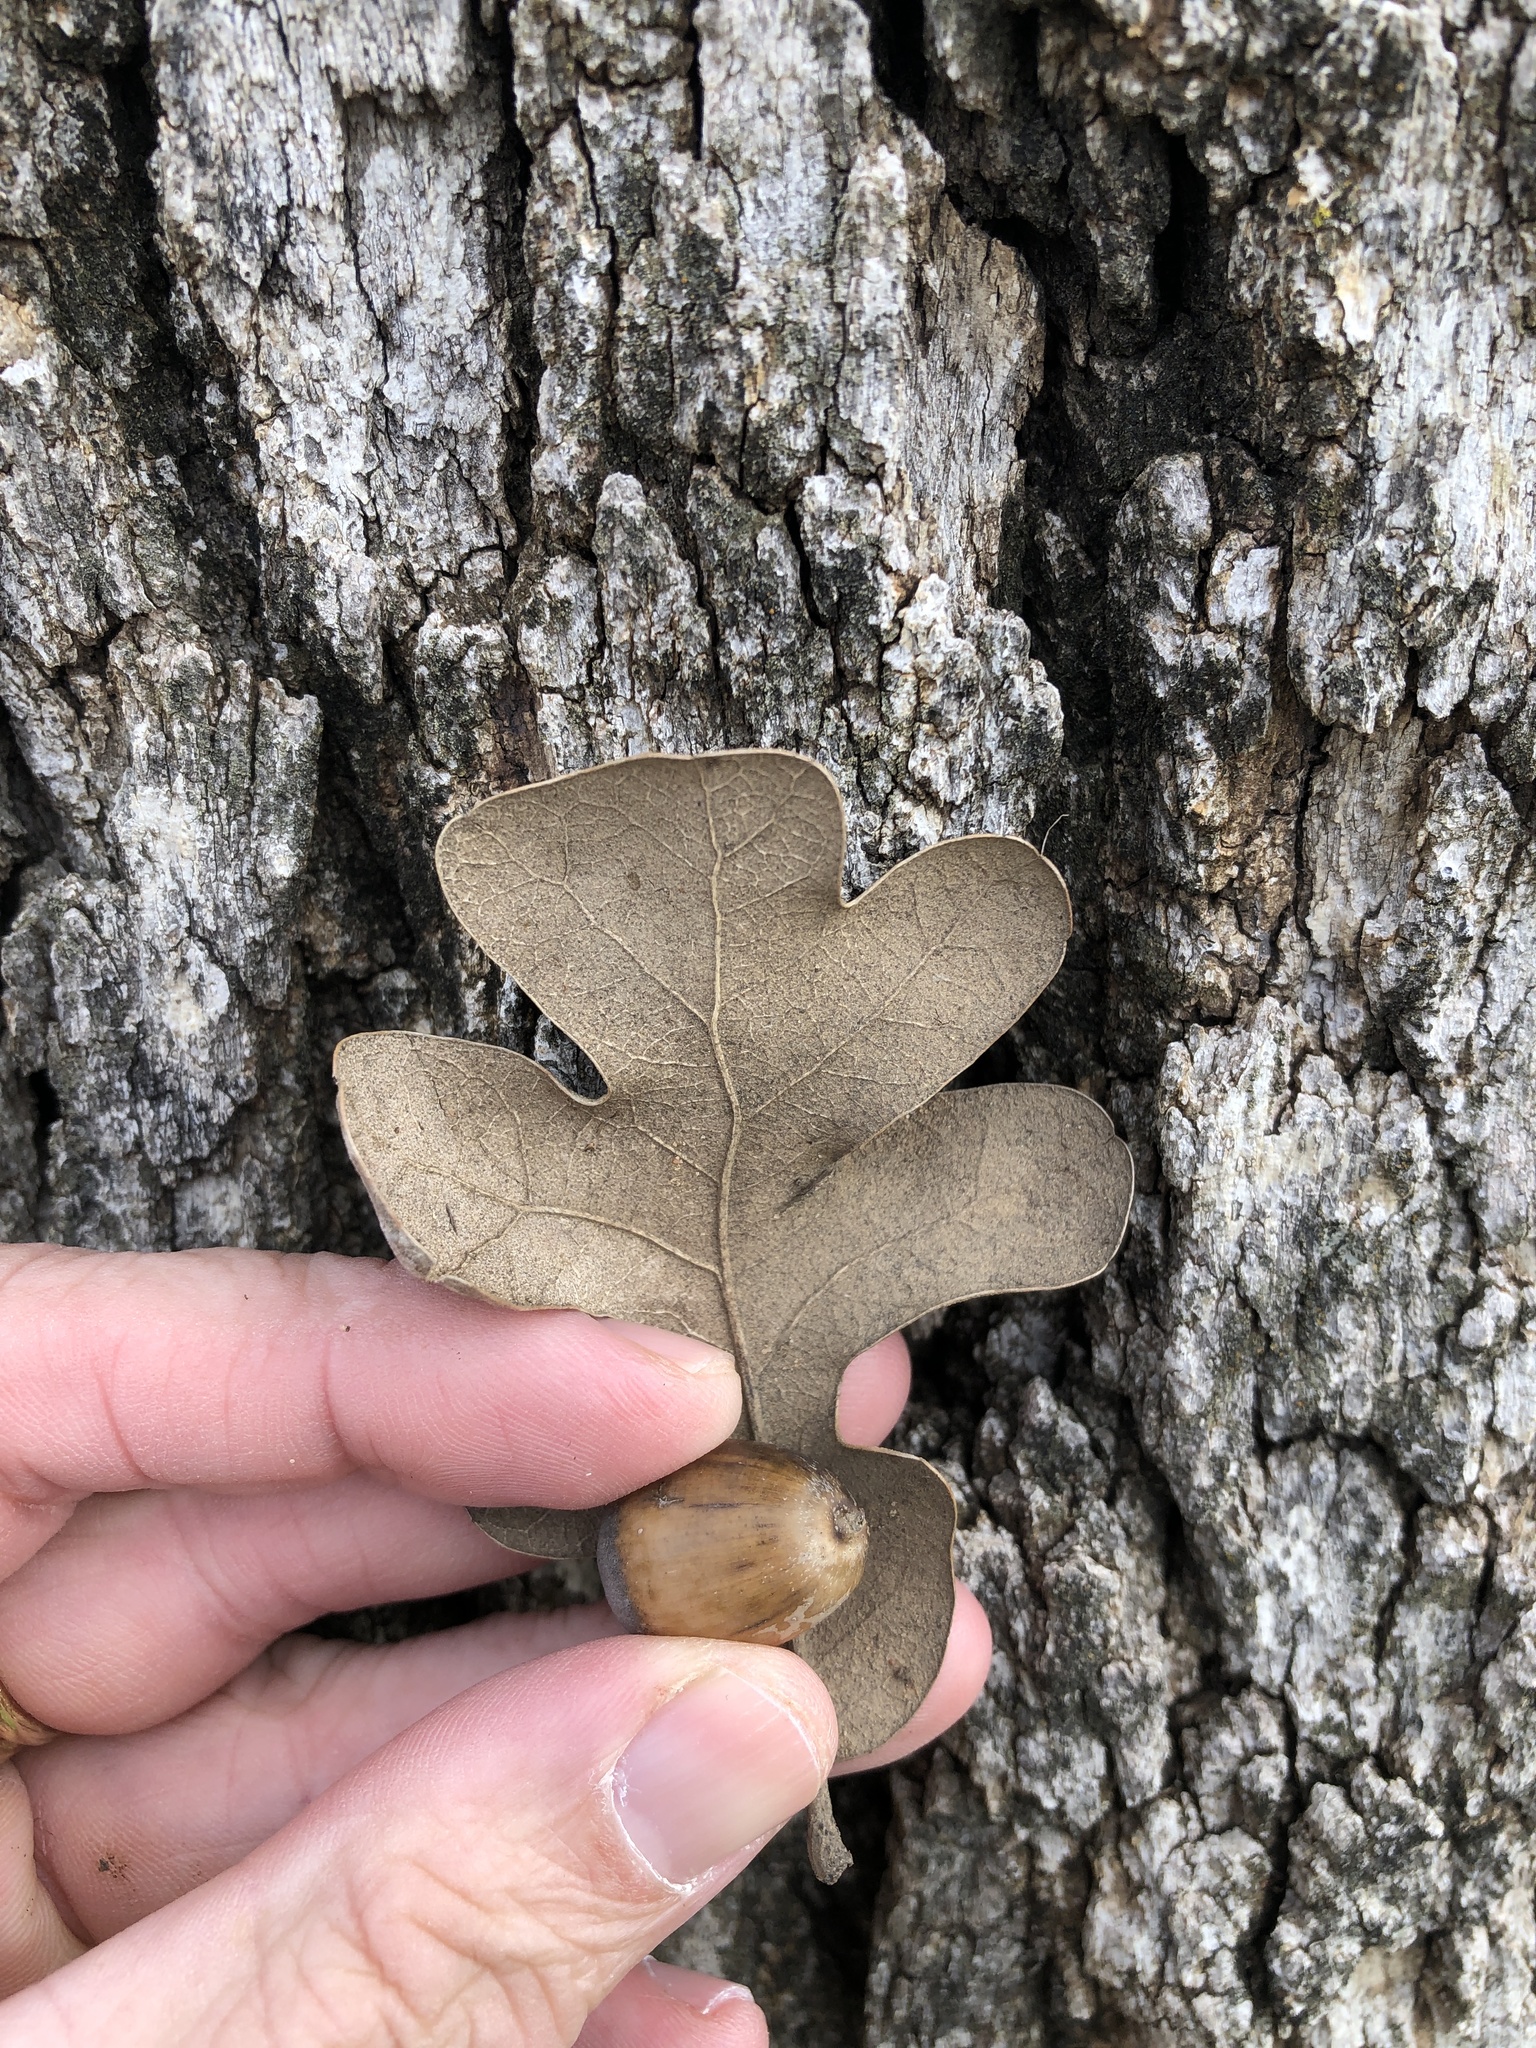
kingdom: Plantae
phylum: Tracheophyta
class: Magnoliopsida
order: Fagales
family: Fagaceae
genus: Quercus
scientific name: Quercus stellata
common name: Post oak
